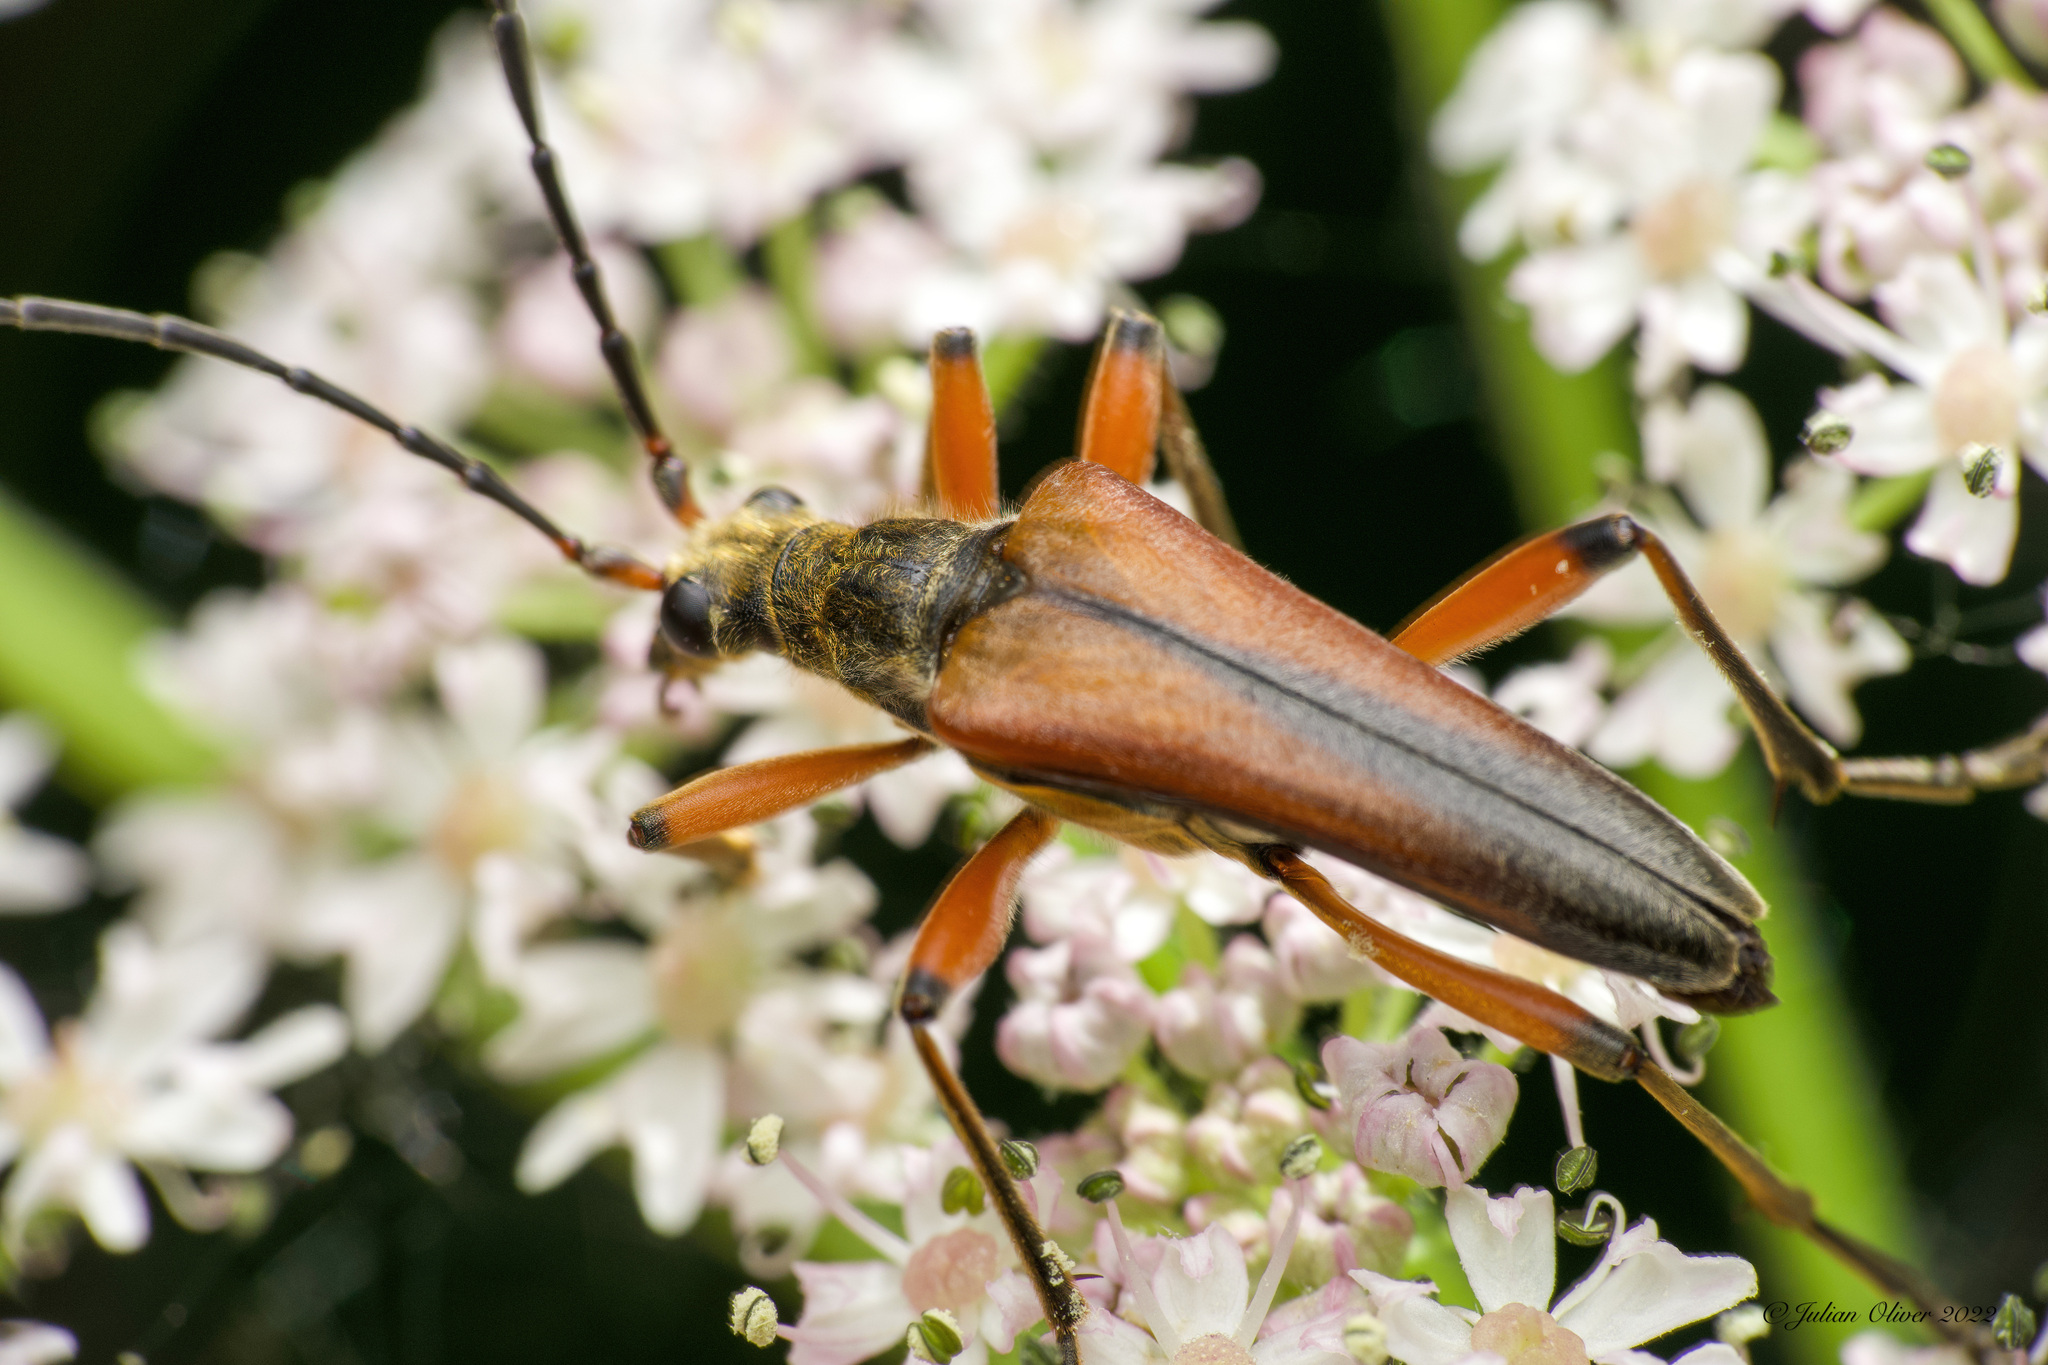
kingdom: Animalia
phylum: Arthropoda
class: Insecta
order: Coleoptera
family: Cerambycidae
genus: Stenocorus
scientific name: Stenocorus meridianus
